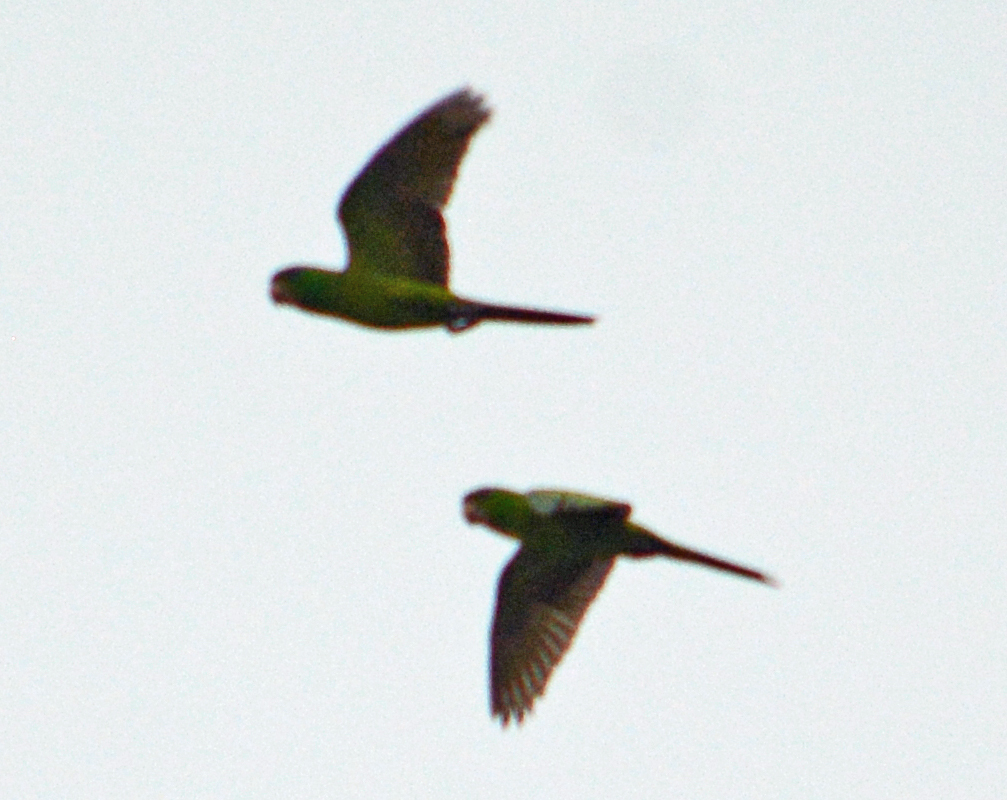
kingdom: Animalia
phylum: Chordata
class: Aves
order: Psittaciformes
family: Psittacidae
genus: Aratinga
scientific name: Aratinga nana
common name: Olive-throated parakeet
